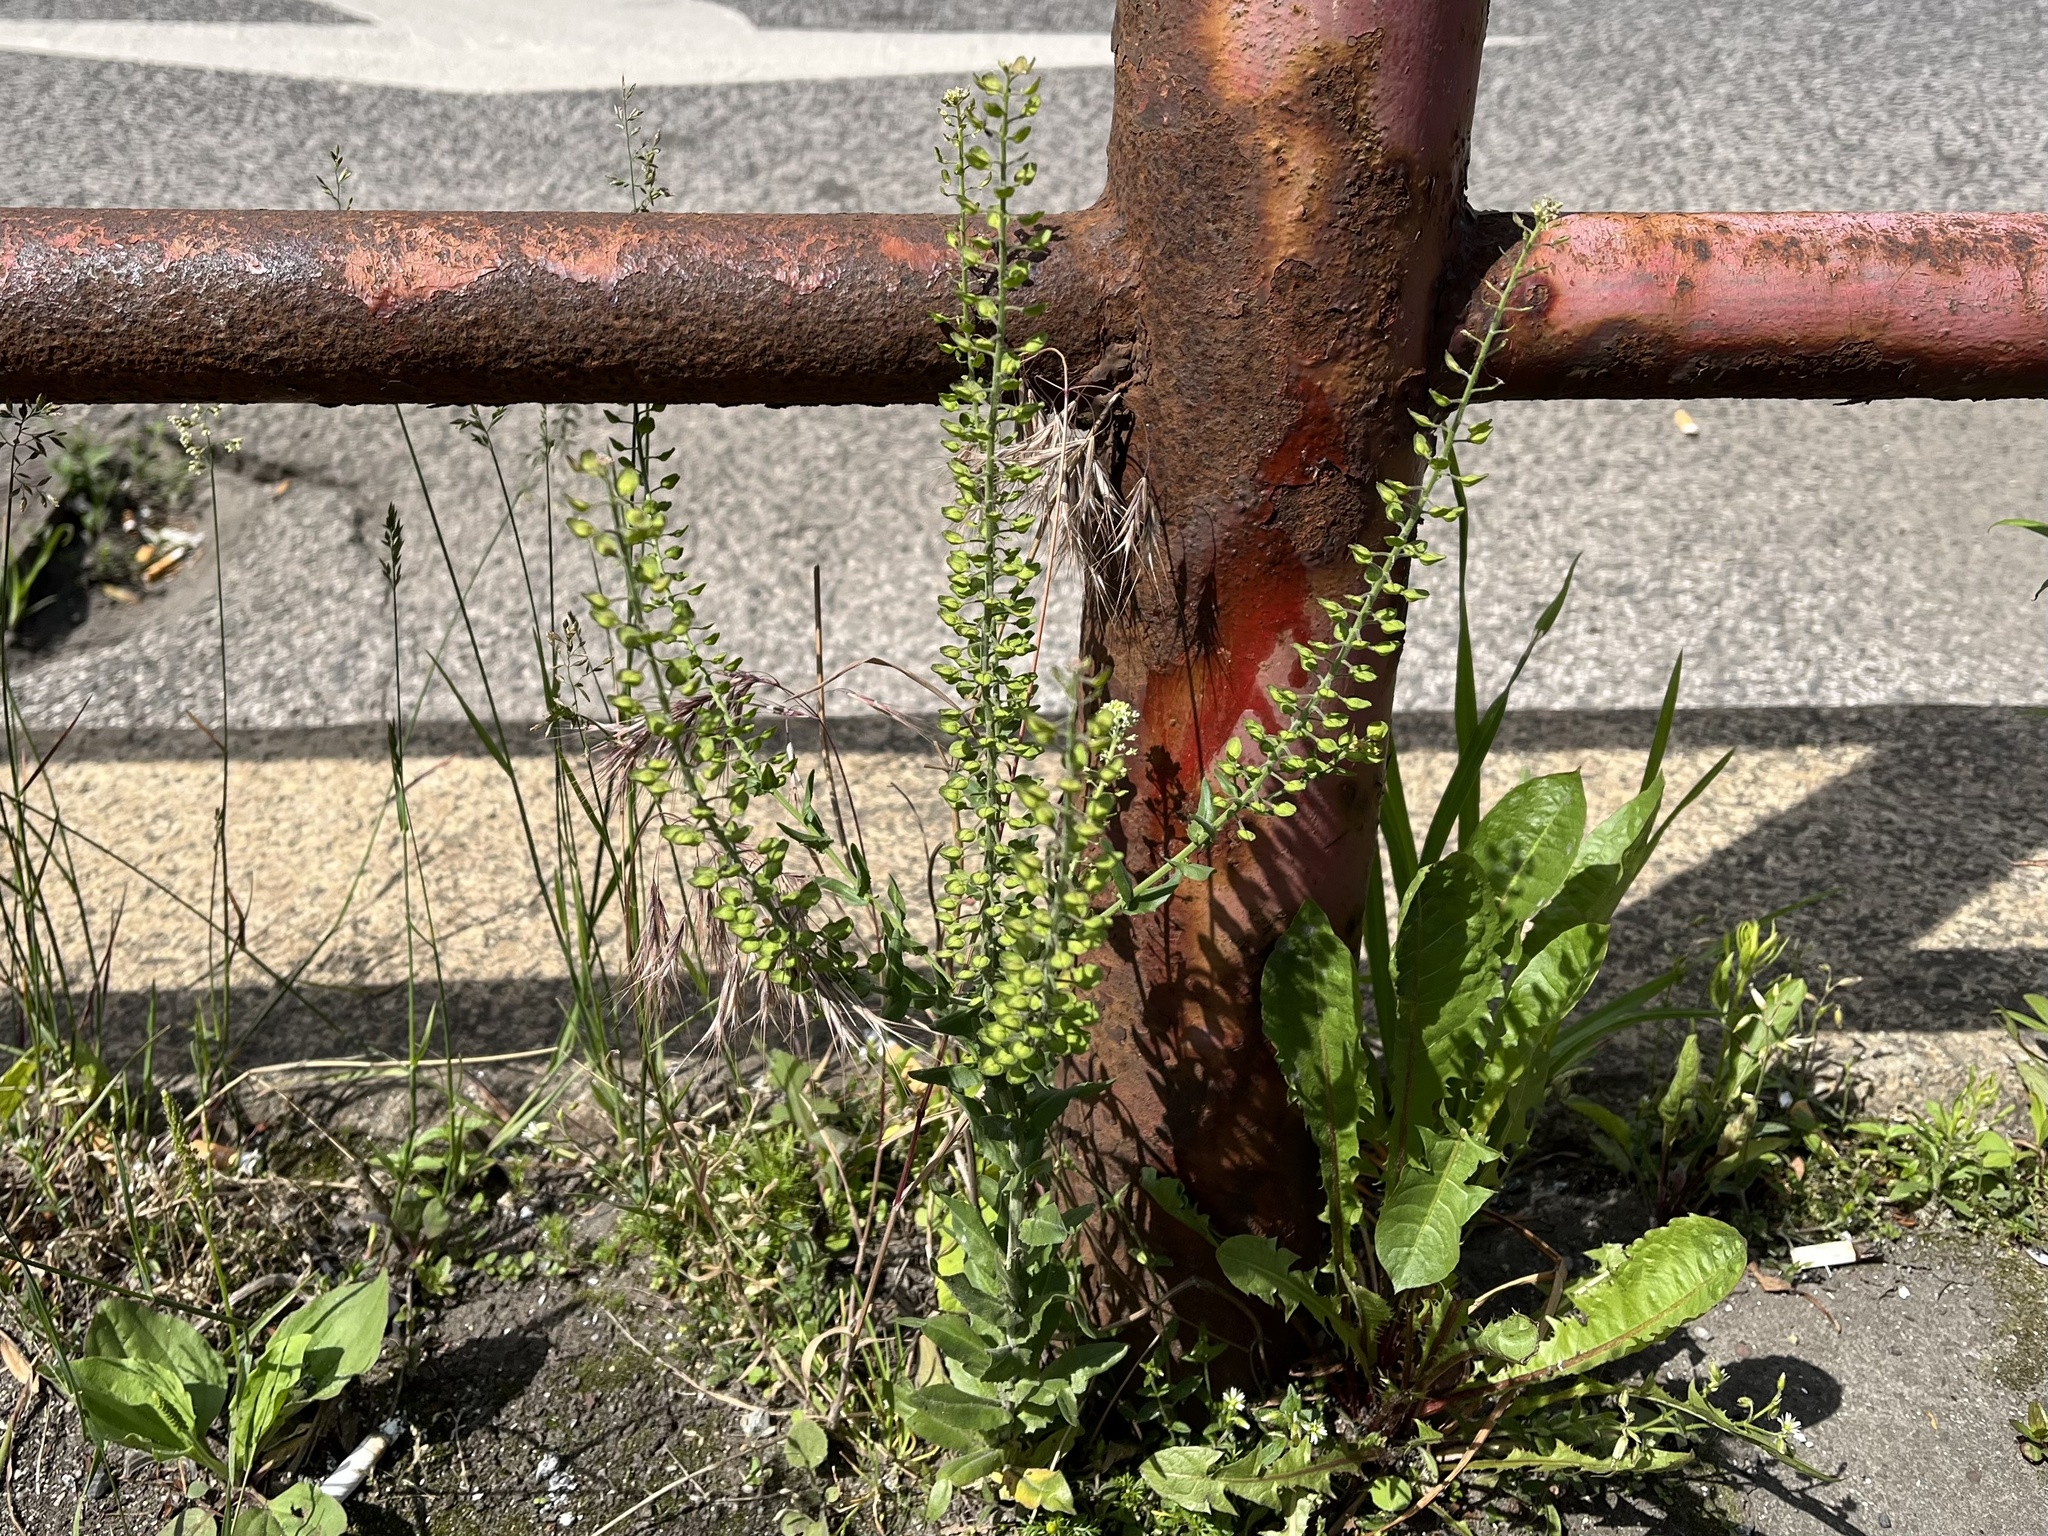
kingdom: Plantae
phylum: Tracheophyta
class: Magnoliopsida
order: Brassicales
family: Brassicaceae
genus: Lepidium
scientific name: Lepidium campestre
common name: Field pepperwort
